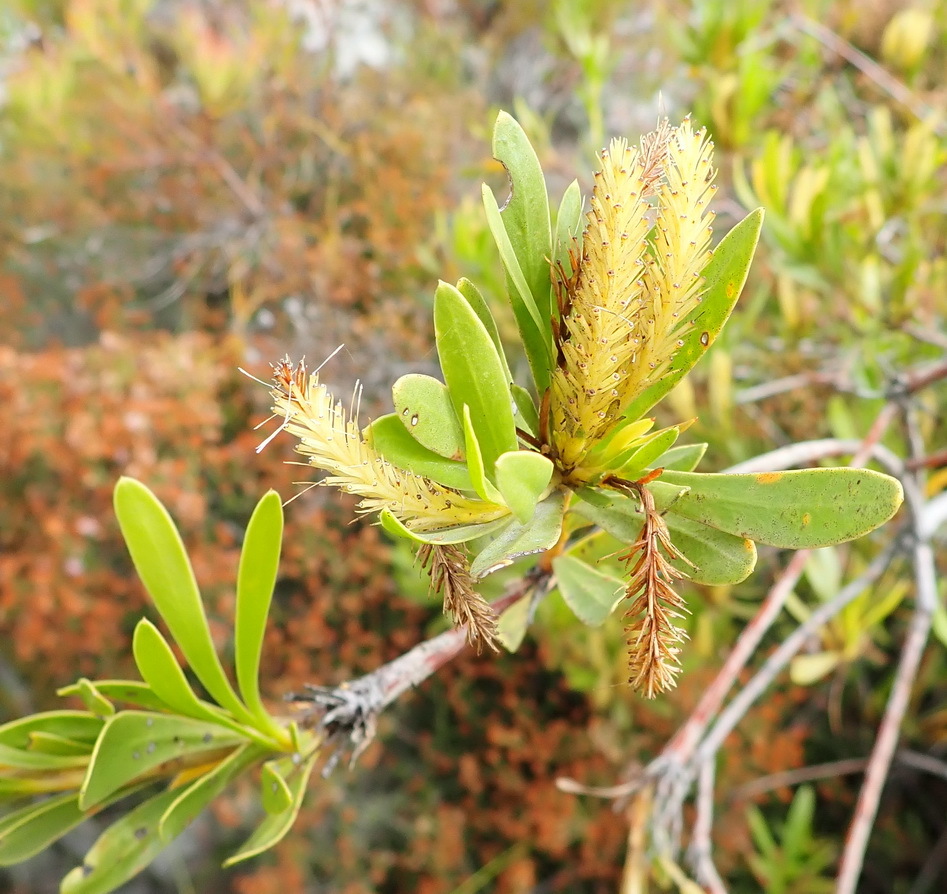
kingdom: Plantae
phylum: Tracheophyta
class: Magnoliopsida
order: Proteales
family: Proteaceae
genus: Aulax
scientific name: Aulax umbellata
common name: Broad-leaf featherbush
